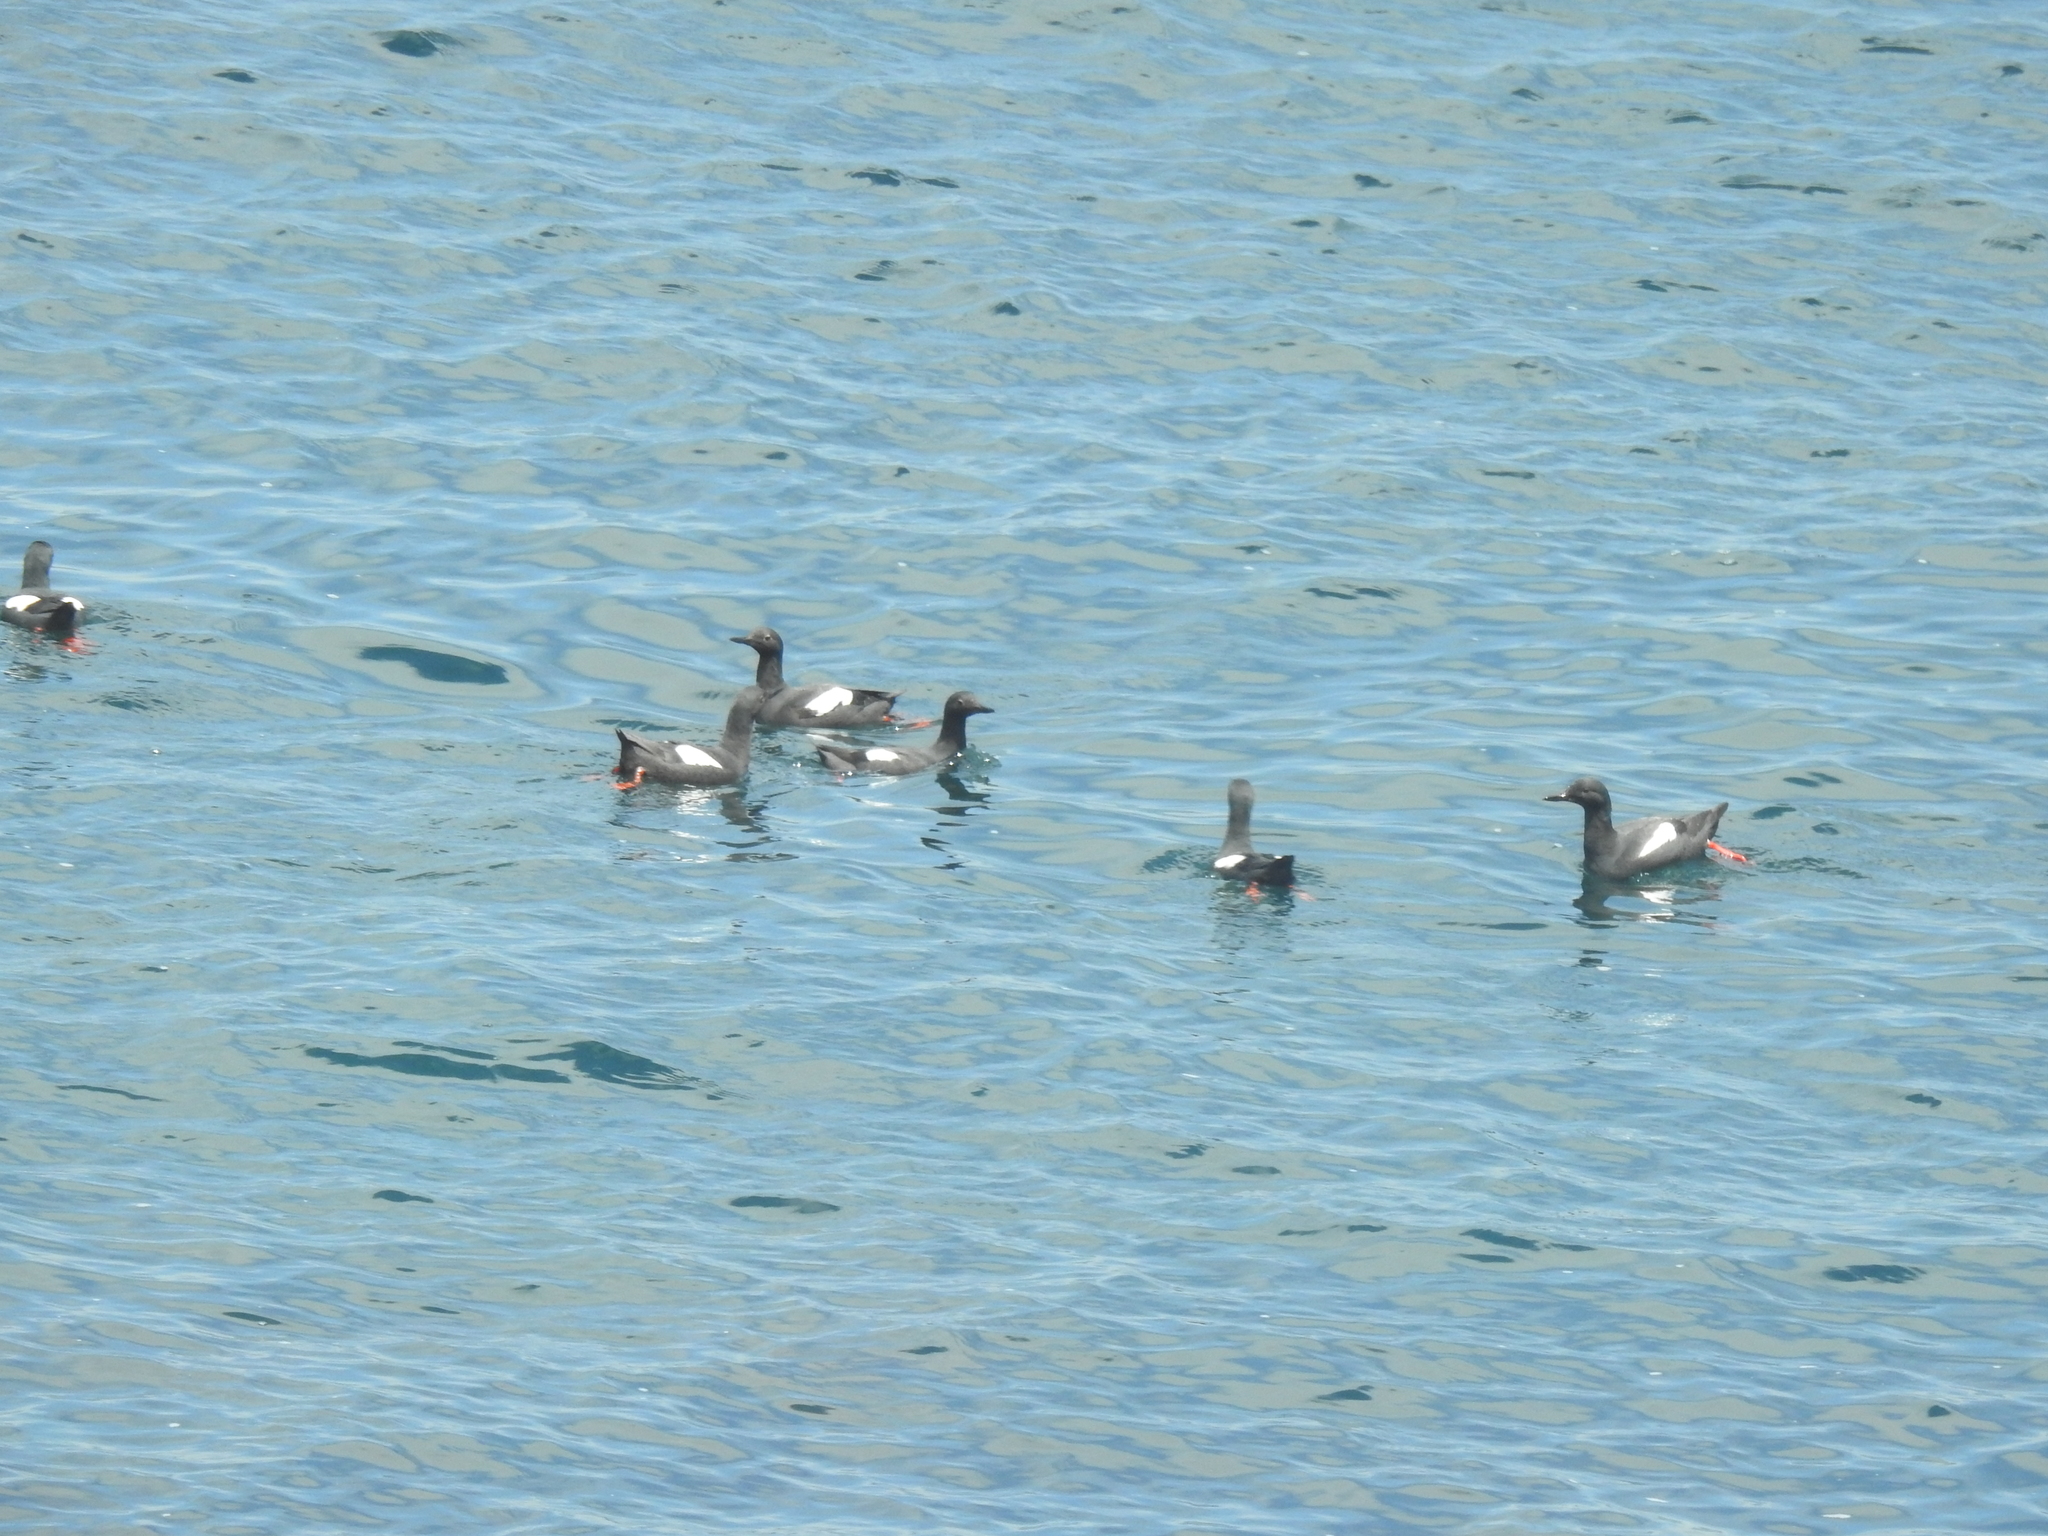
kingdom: Animalia
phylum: Chordata
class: Aves
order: Charadriiformes
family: Alcidae
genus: Cepphus
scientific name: Cepphus columba
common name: Pigeon guillemot
